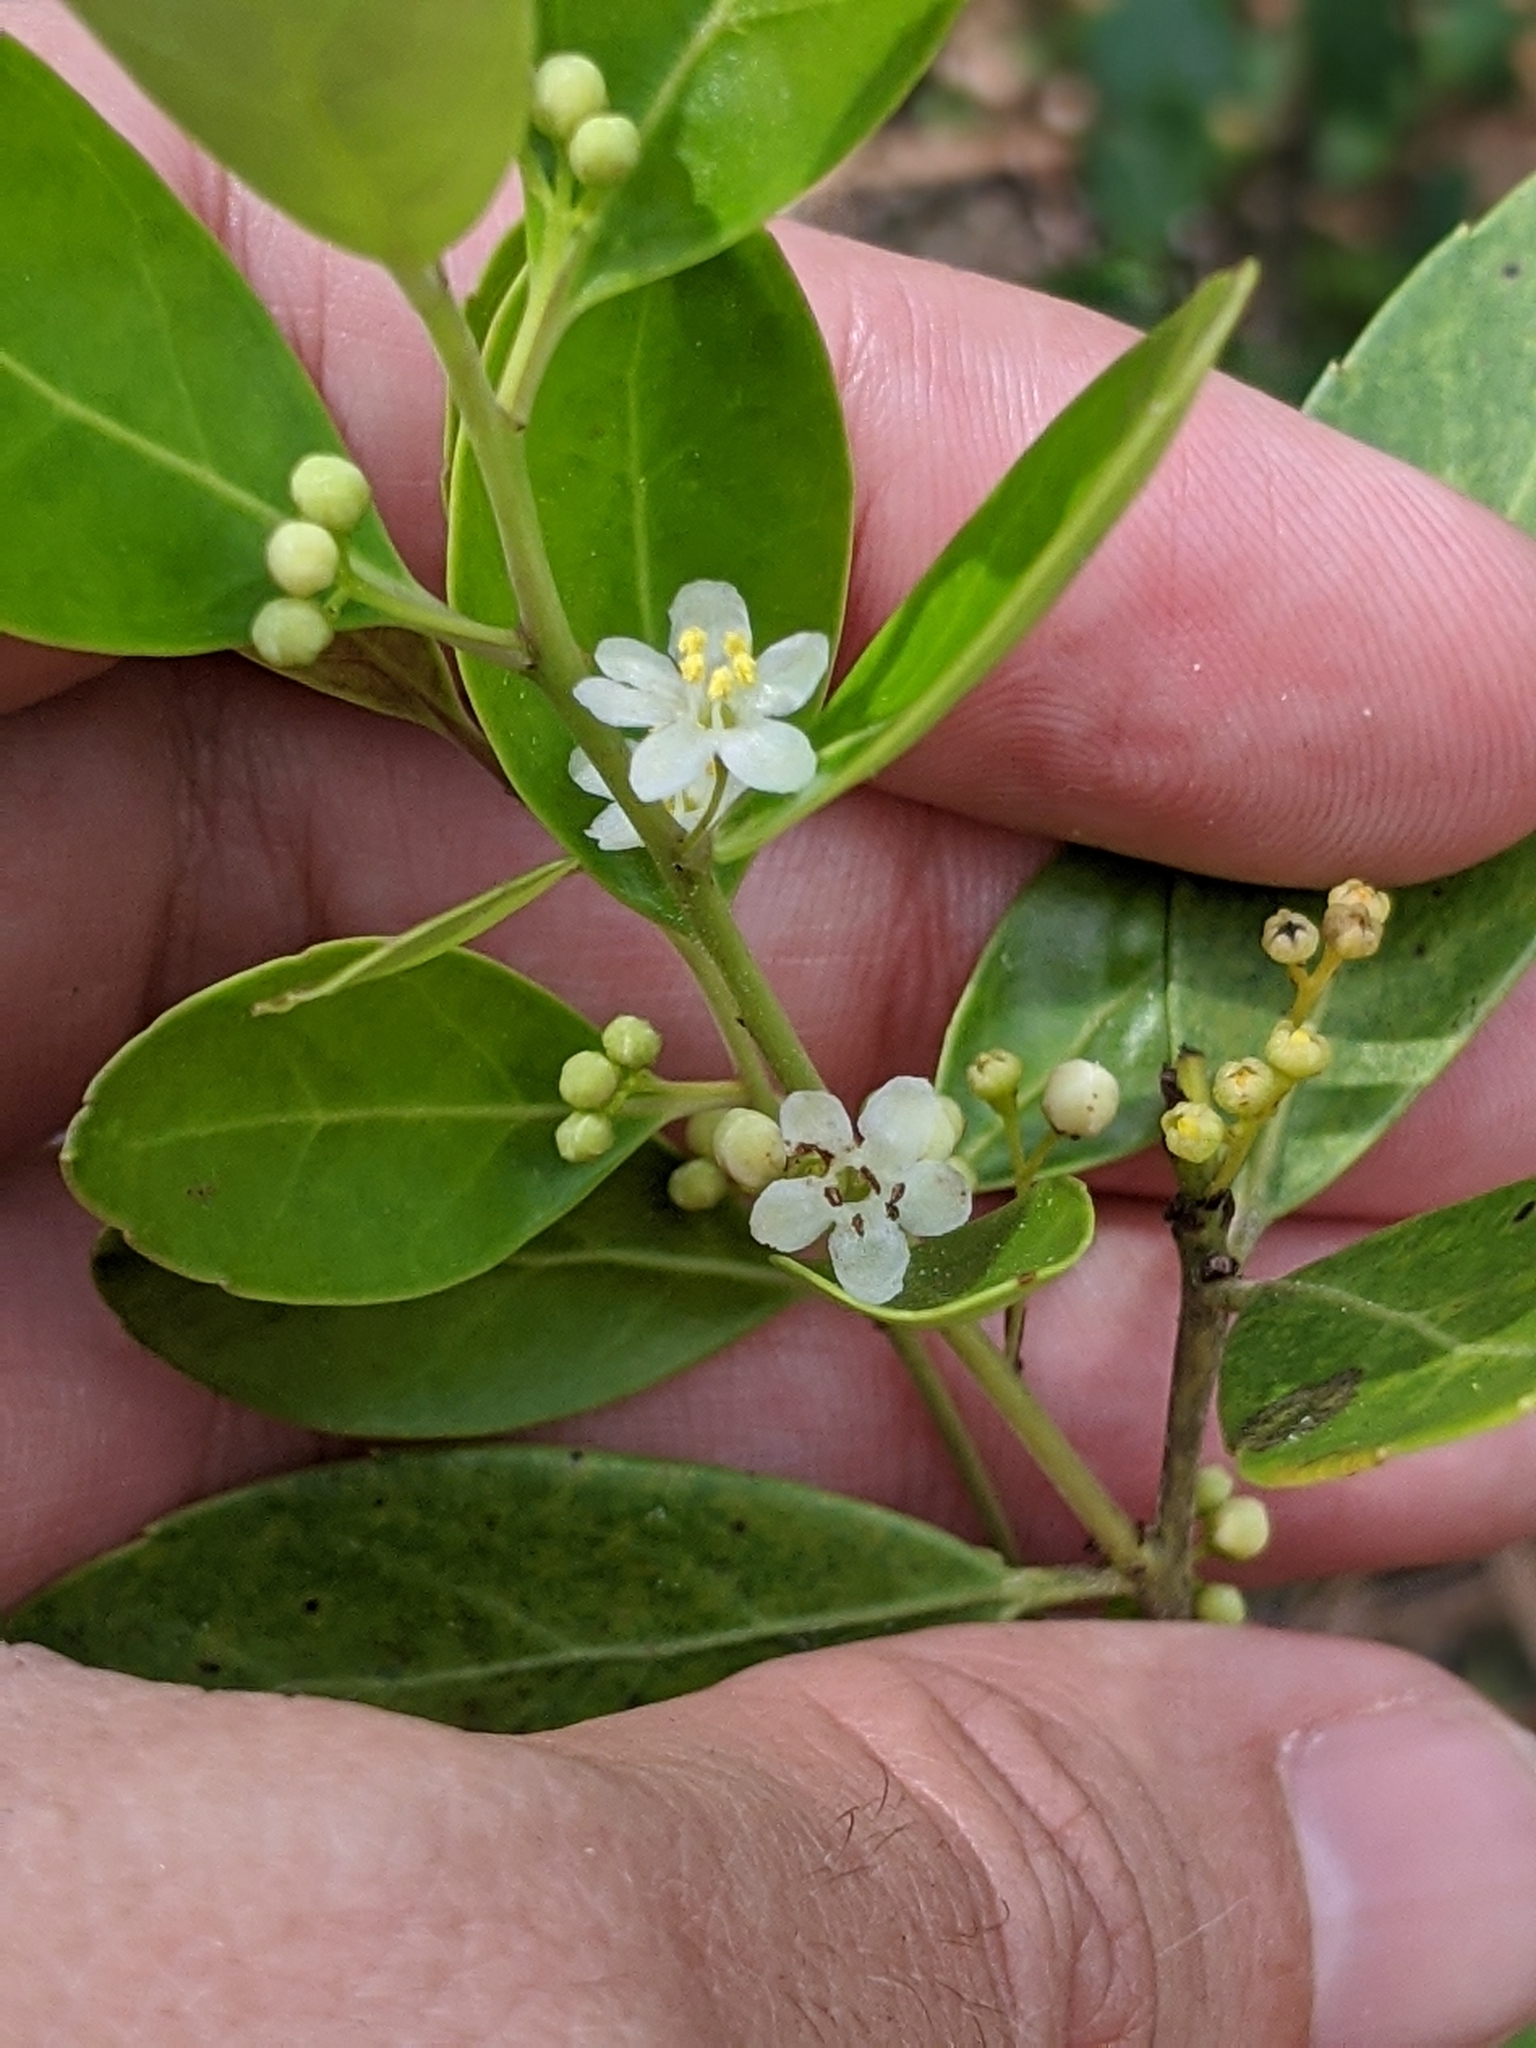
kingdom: Plantae
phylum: Tracheophyta
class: Magnoliopsida
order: Aquifoliales
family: Aquifoliaceae
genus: Ilex
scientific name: Ilex glabra
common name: Bitter gallberry
